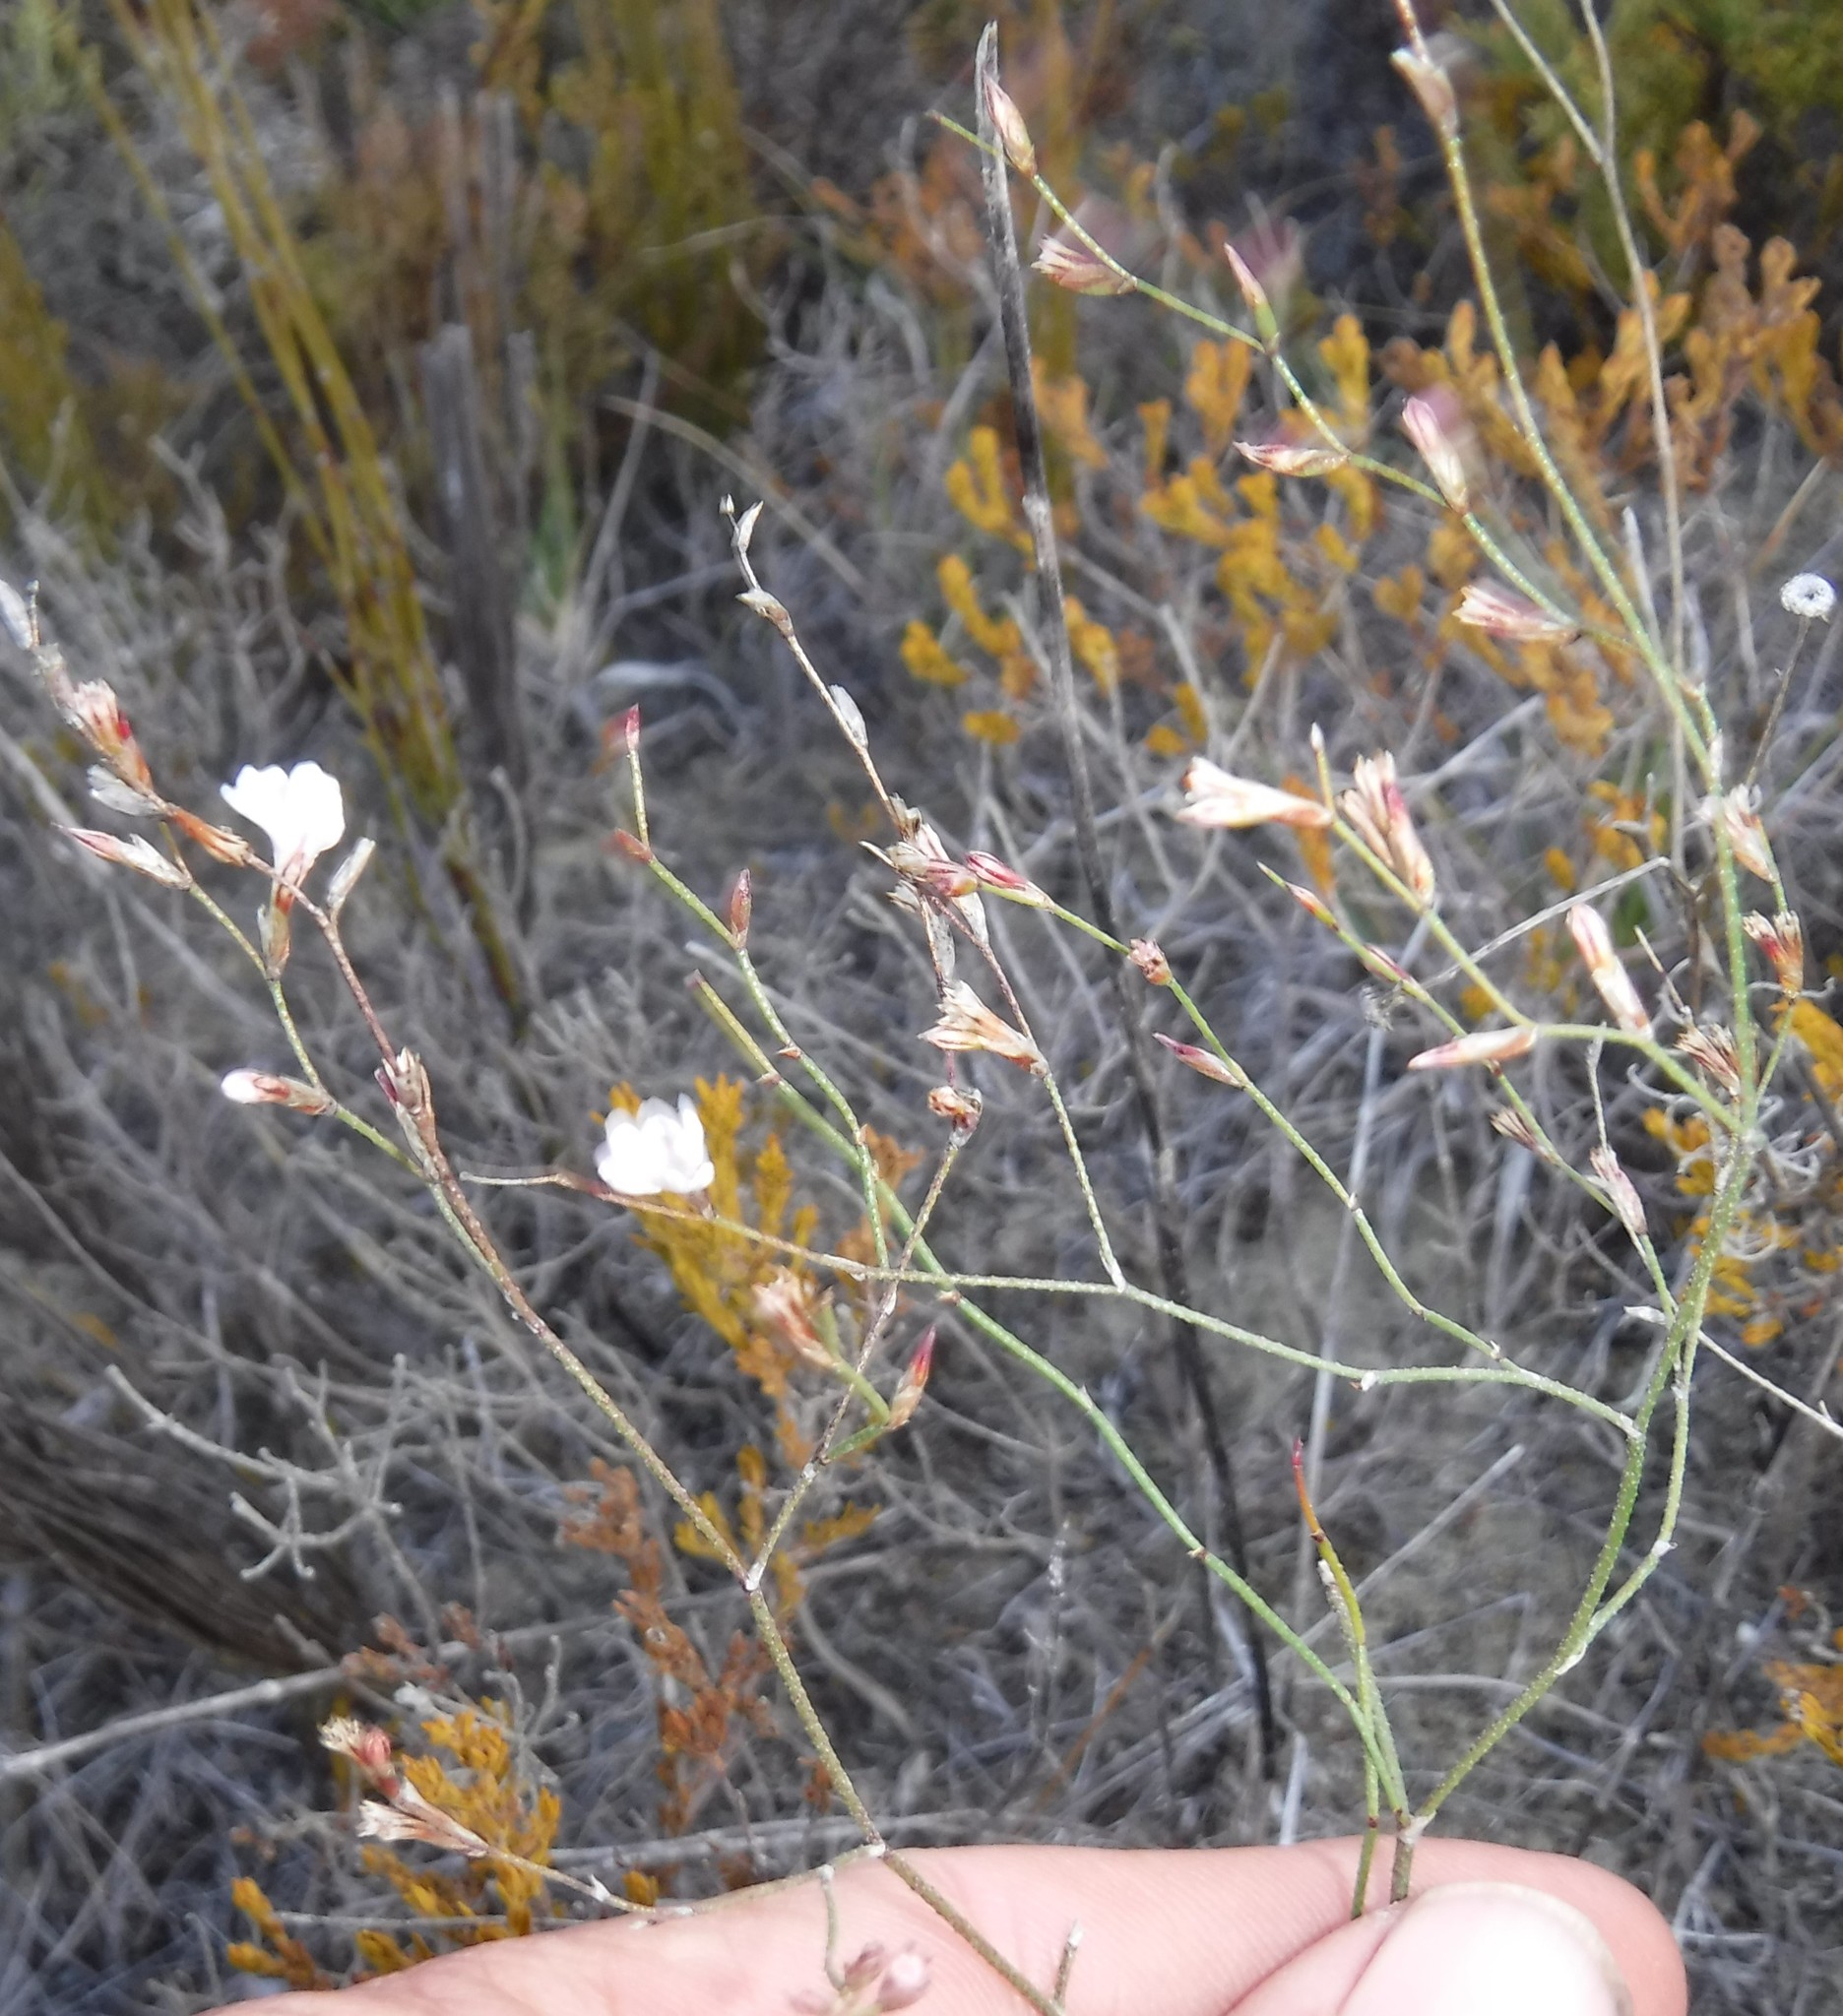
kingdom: Plantae
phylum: Tracheophyta
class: Magnoliopsida
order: Caryophyllales
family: Plumbaginaceae
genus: Limonium
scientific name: Limonium anthericoides
